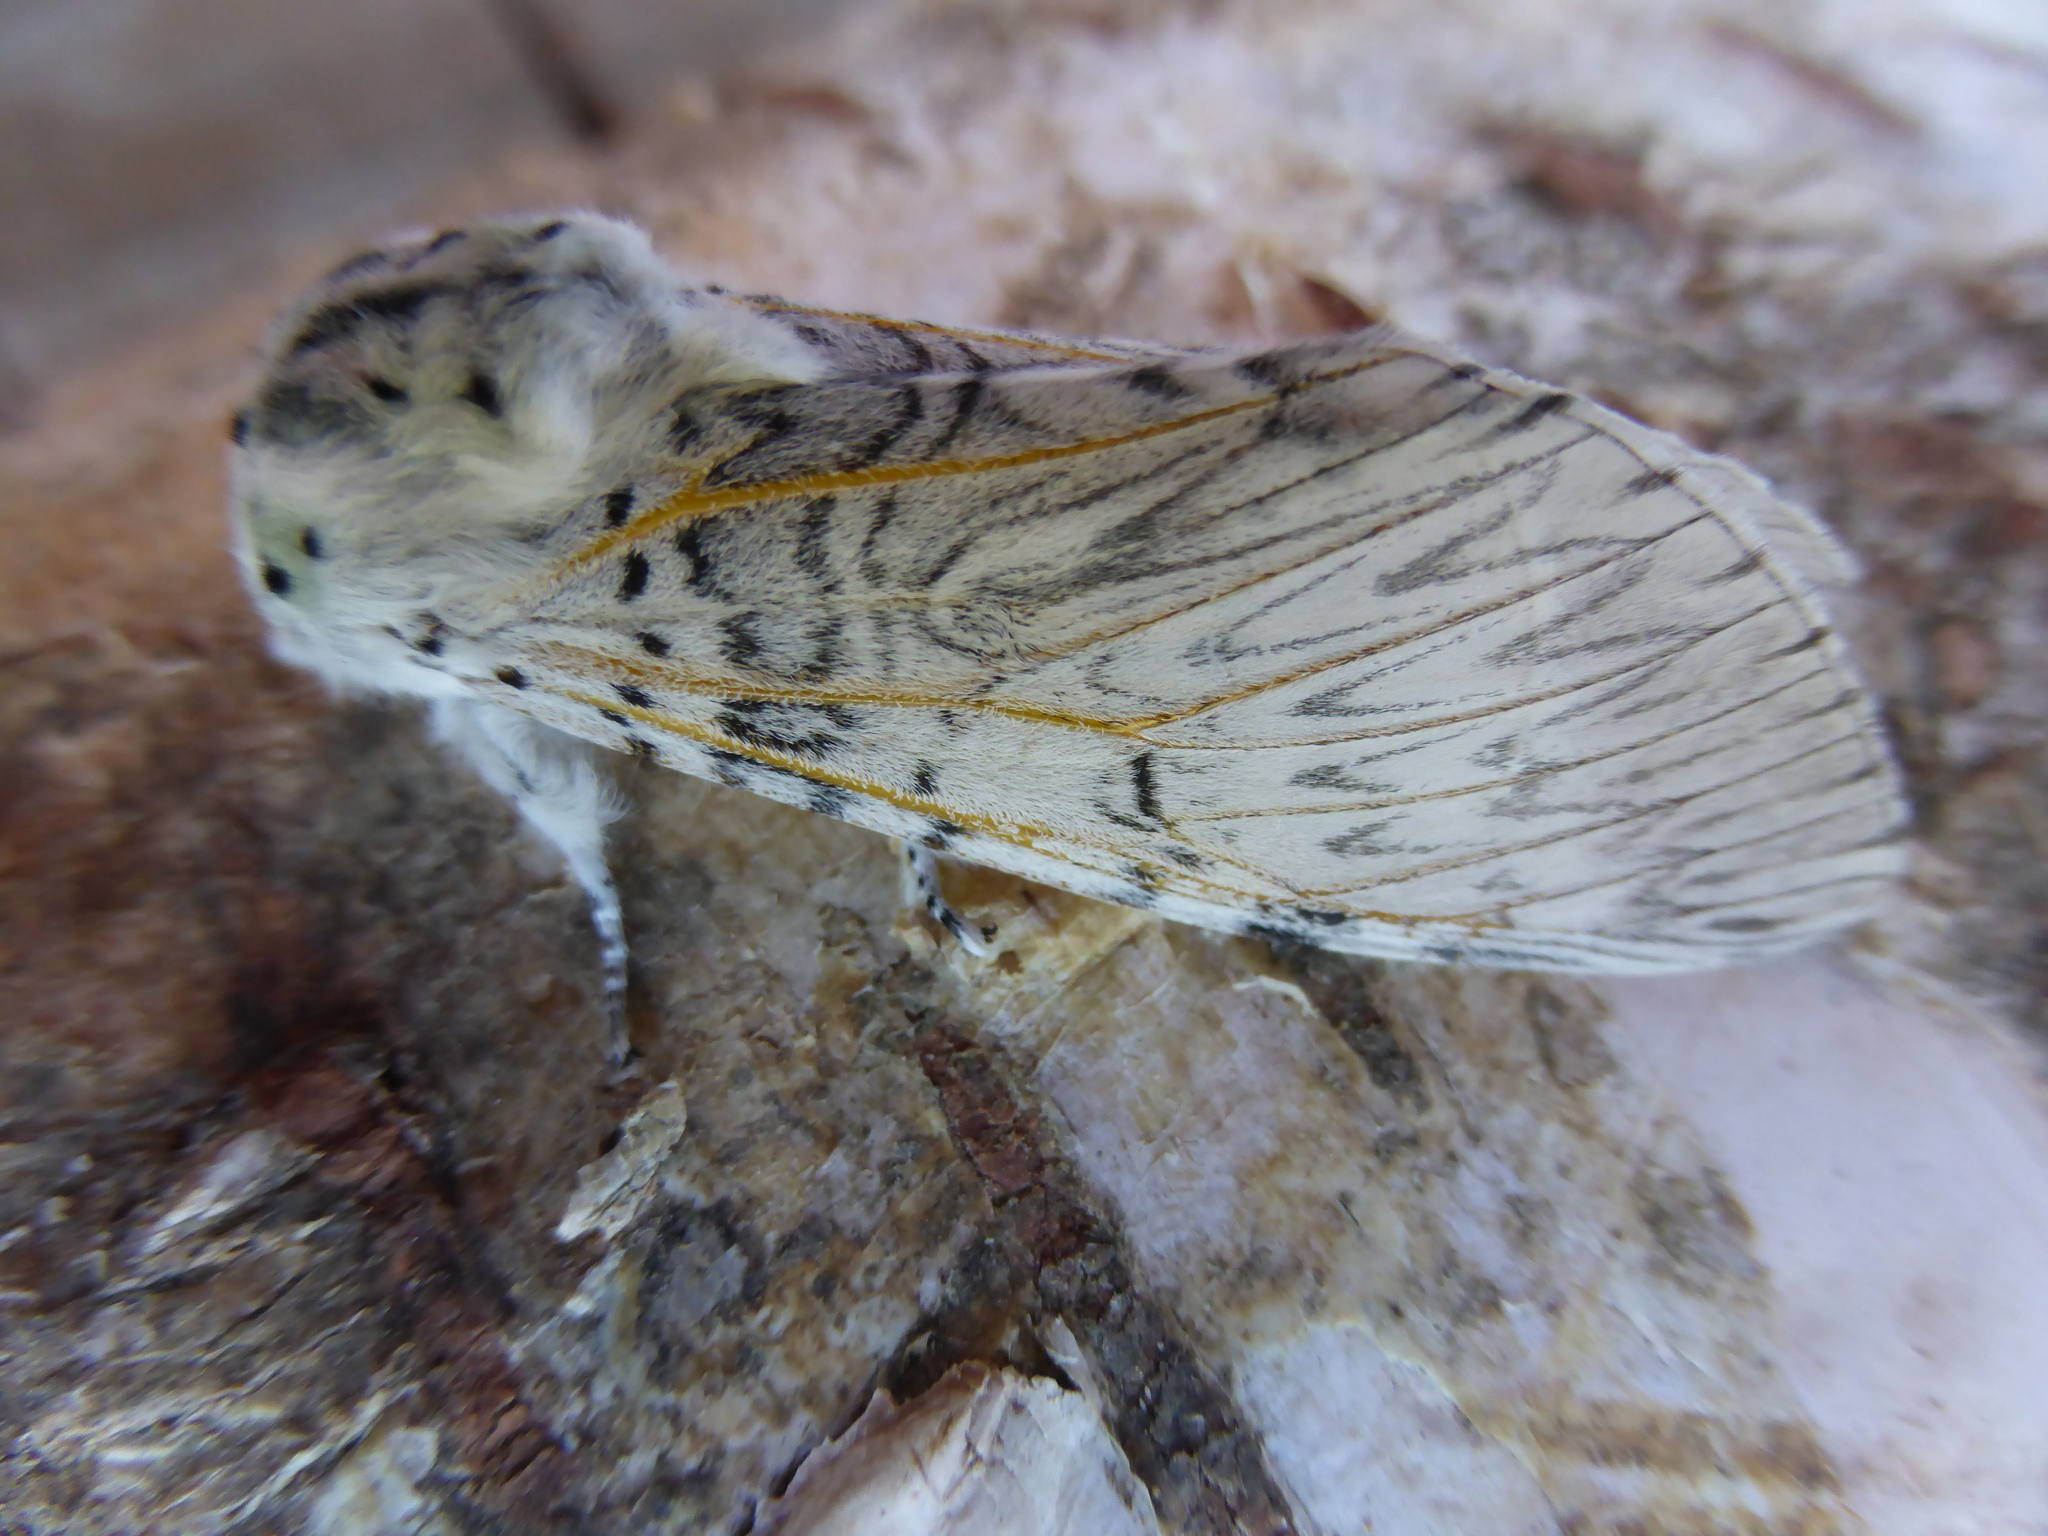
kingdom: Animalia
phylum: Arthropoda
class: Insecta
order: Lepidoptera
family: Notodontidae
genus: Cerura
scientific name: Cerura vinula
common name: Puss moth
